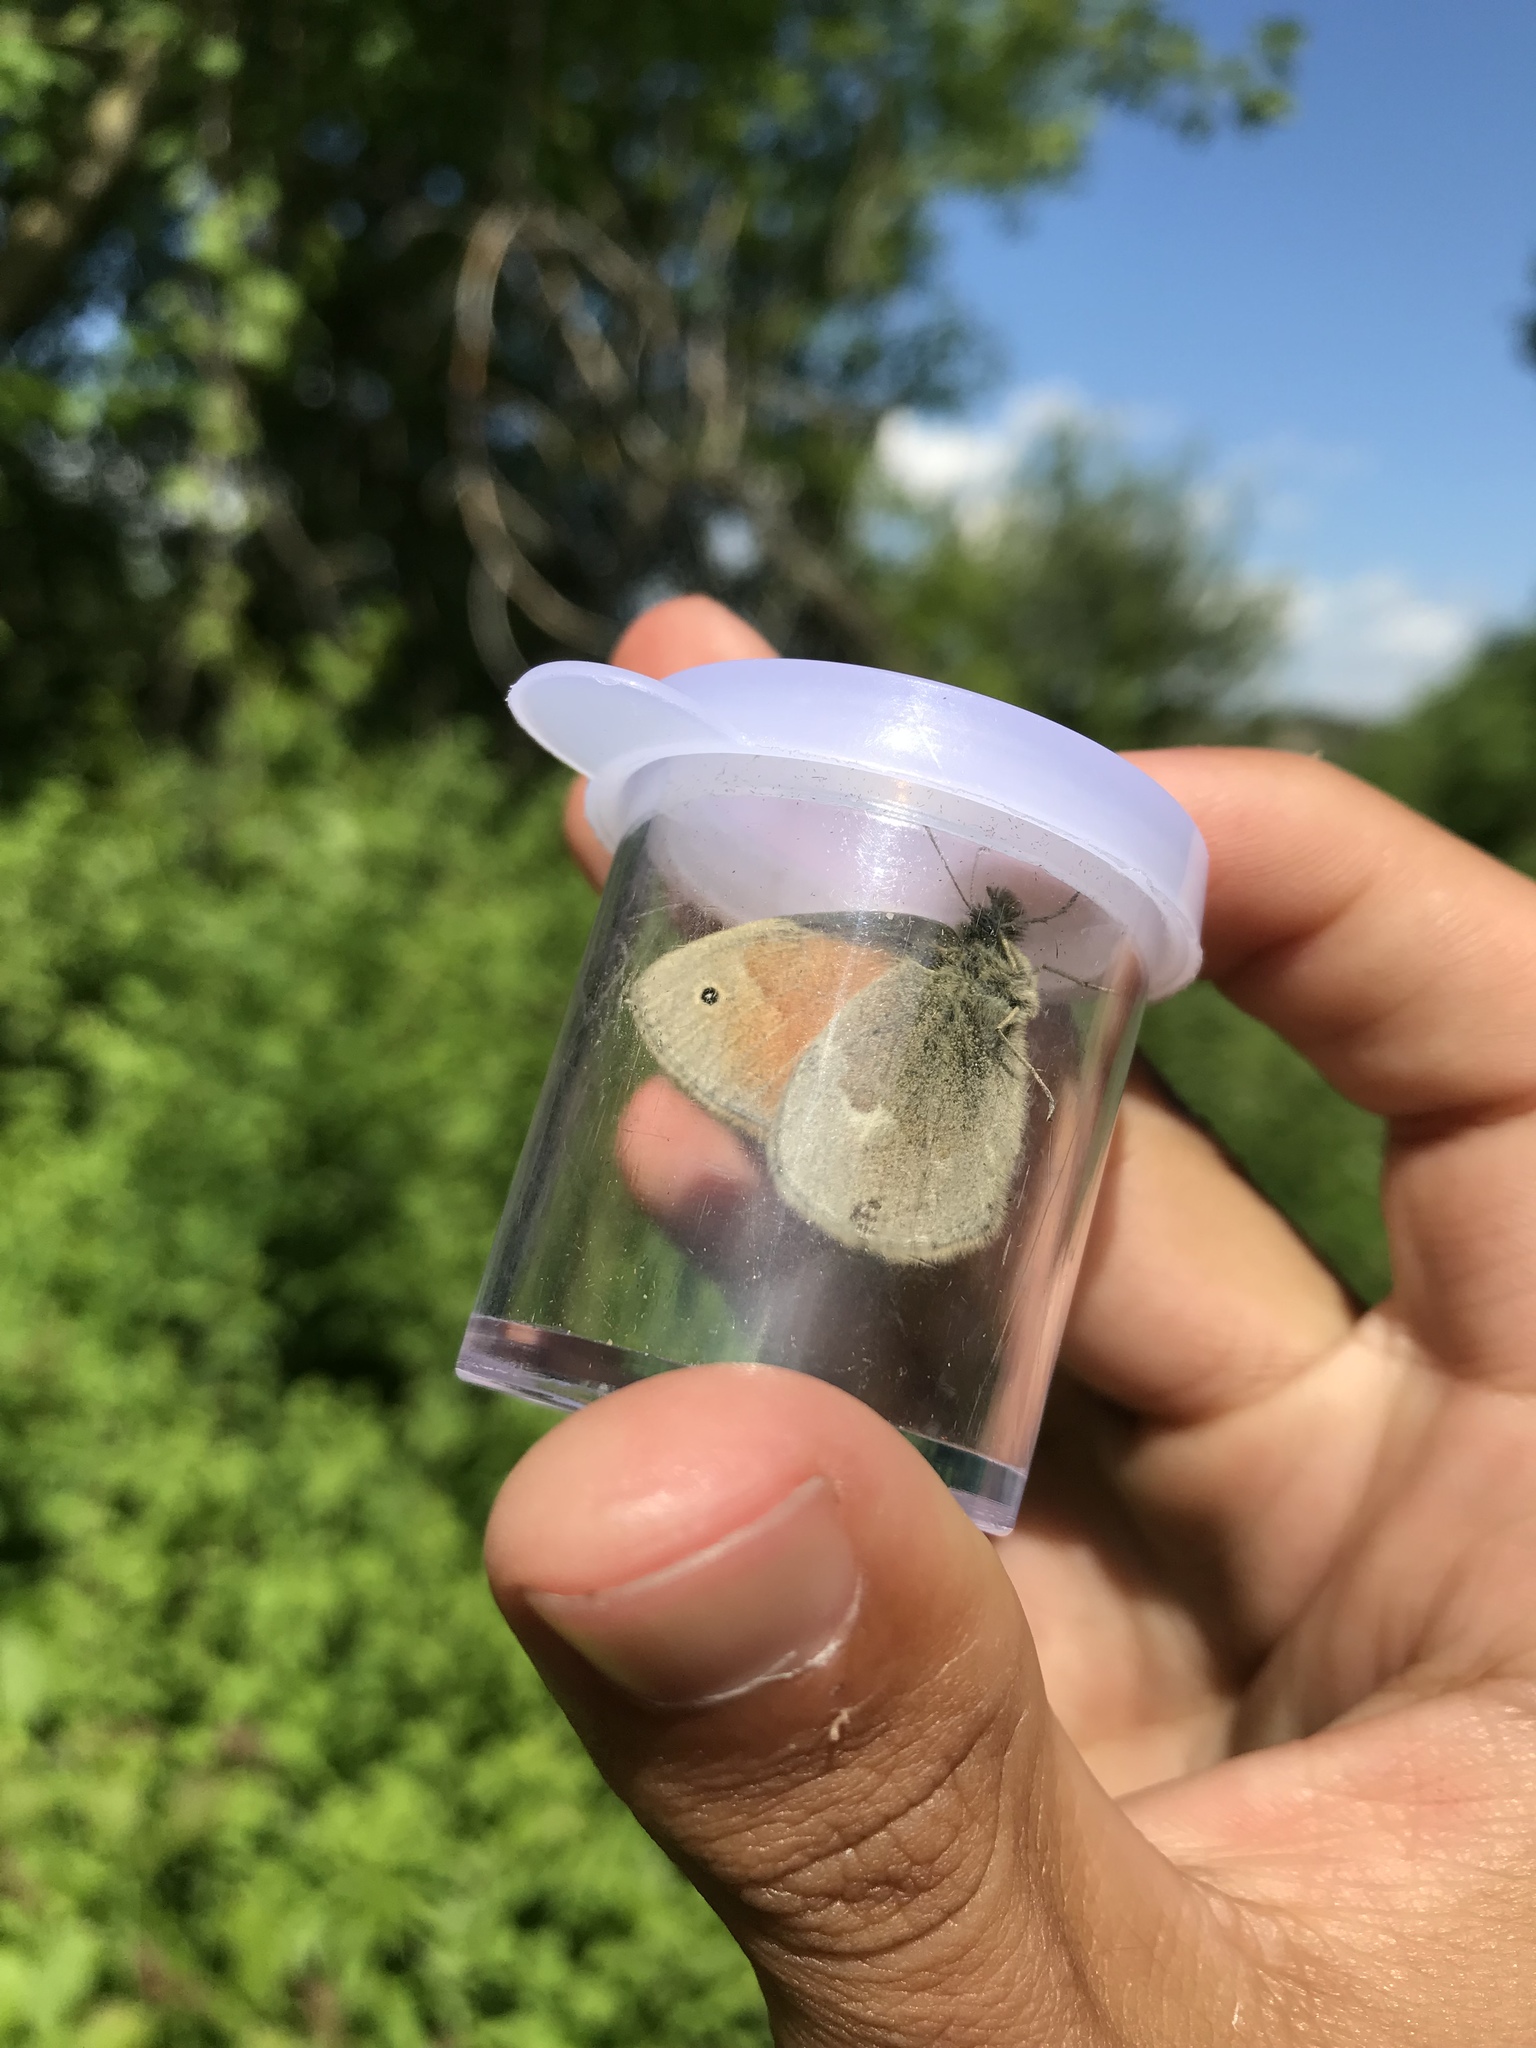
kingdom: Animalia
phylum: Arthropoda
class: Insecta
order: Lepidoptera
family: Nymphalidae
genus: Coenonympha
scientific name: Coenonympha california
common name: Common ringlet
